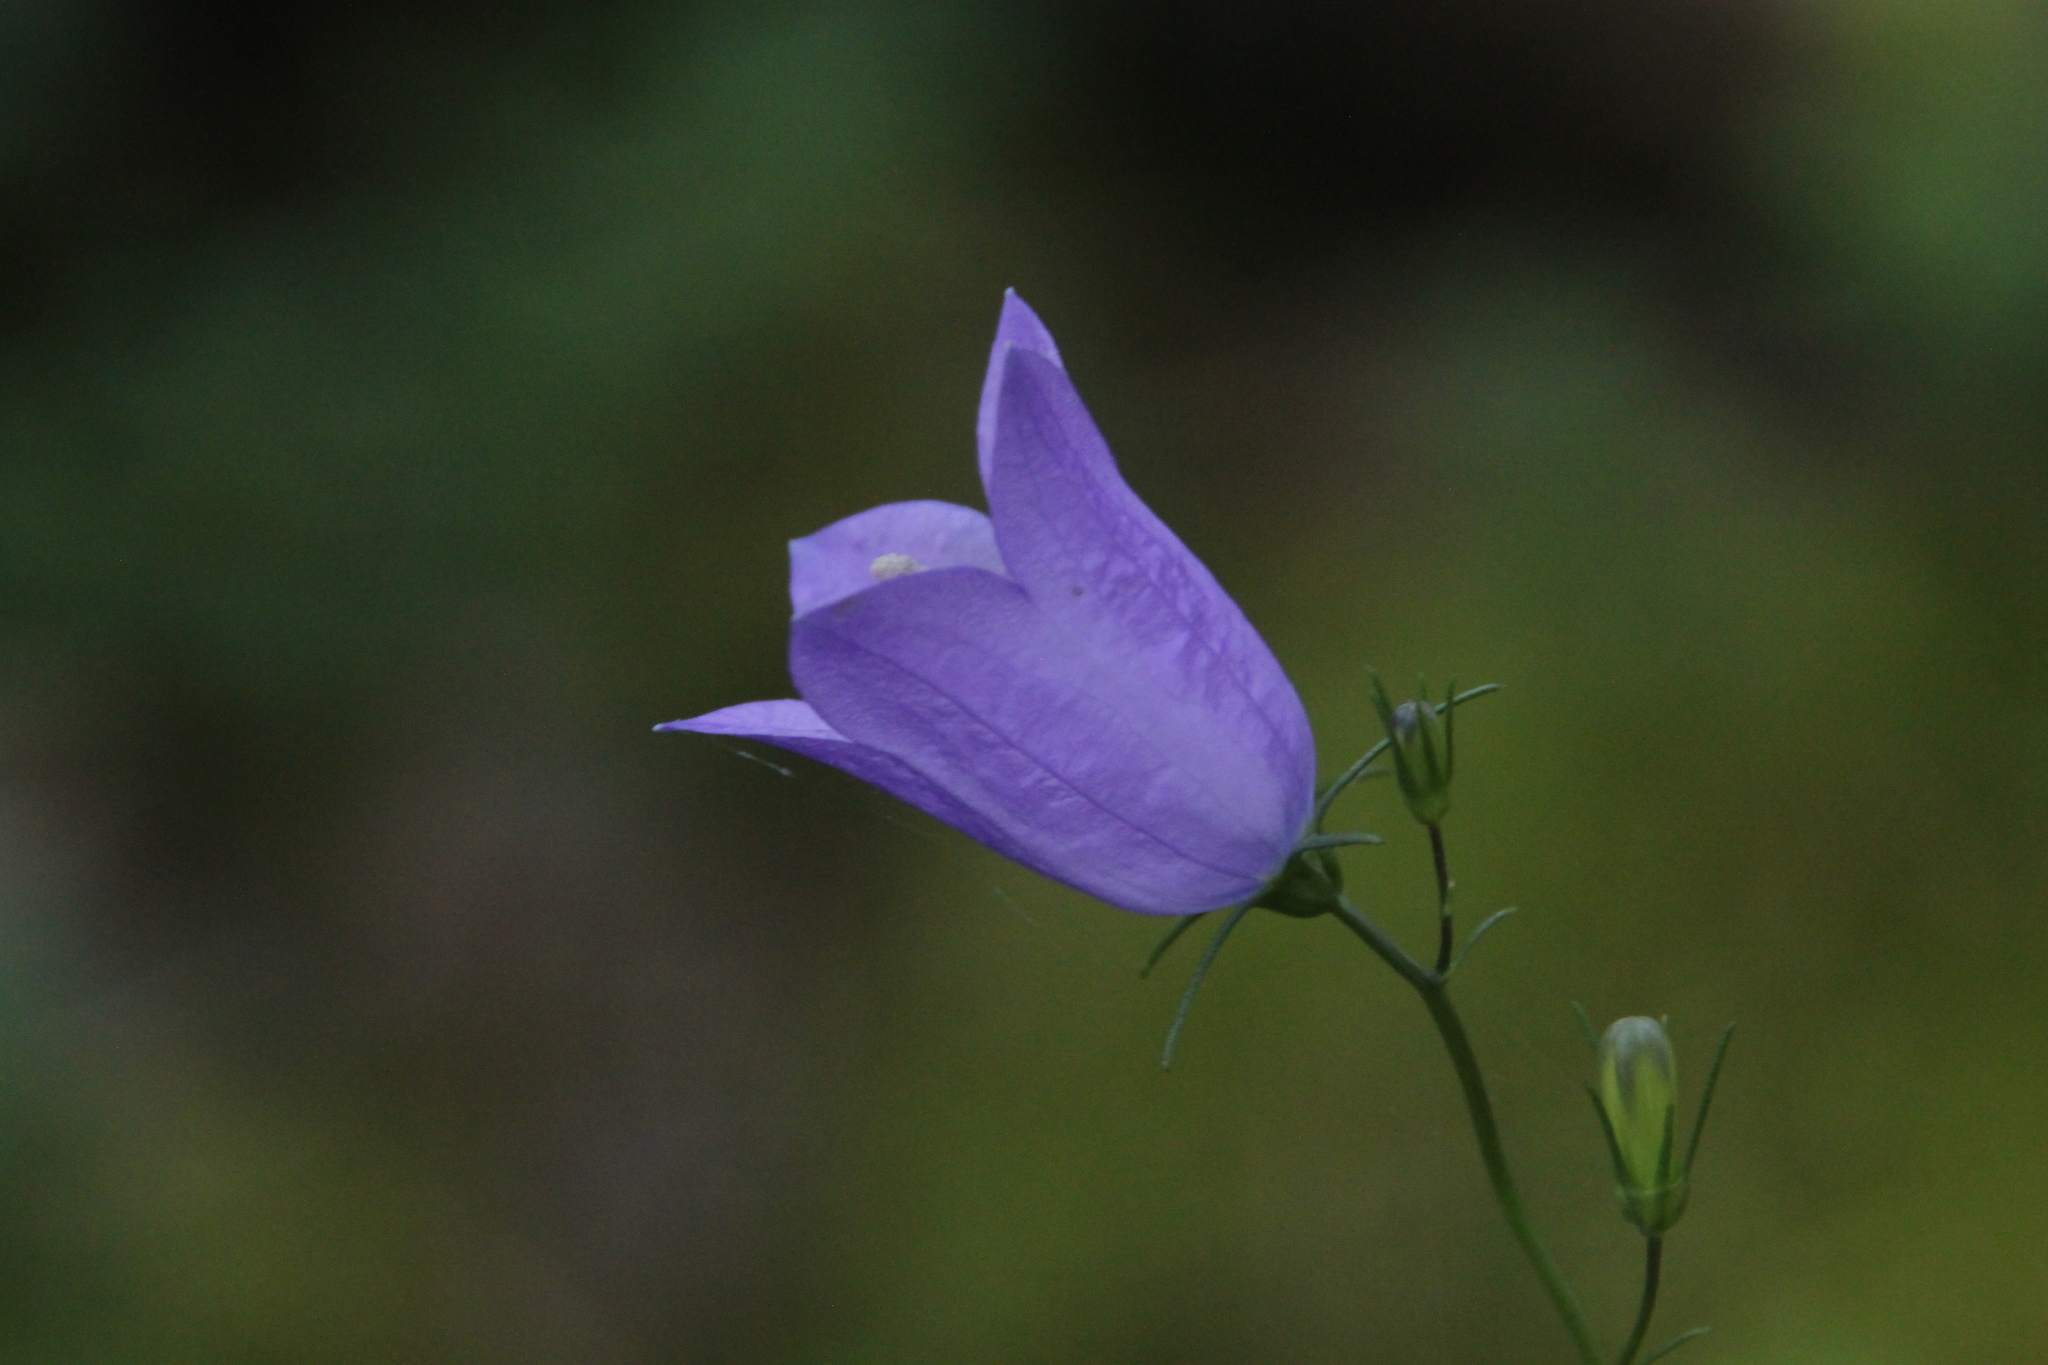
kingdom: Plantae
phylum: Tracheophyta
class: Magnoliopsida
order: Asterales
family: Campanulaceae
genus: Campanula
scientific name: Campanula rotundifolia
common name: Harebell
